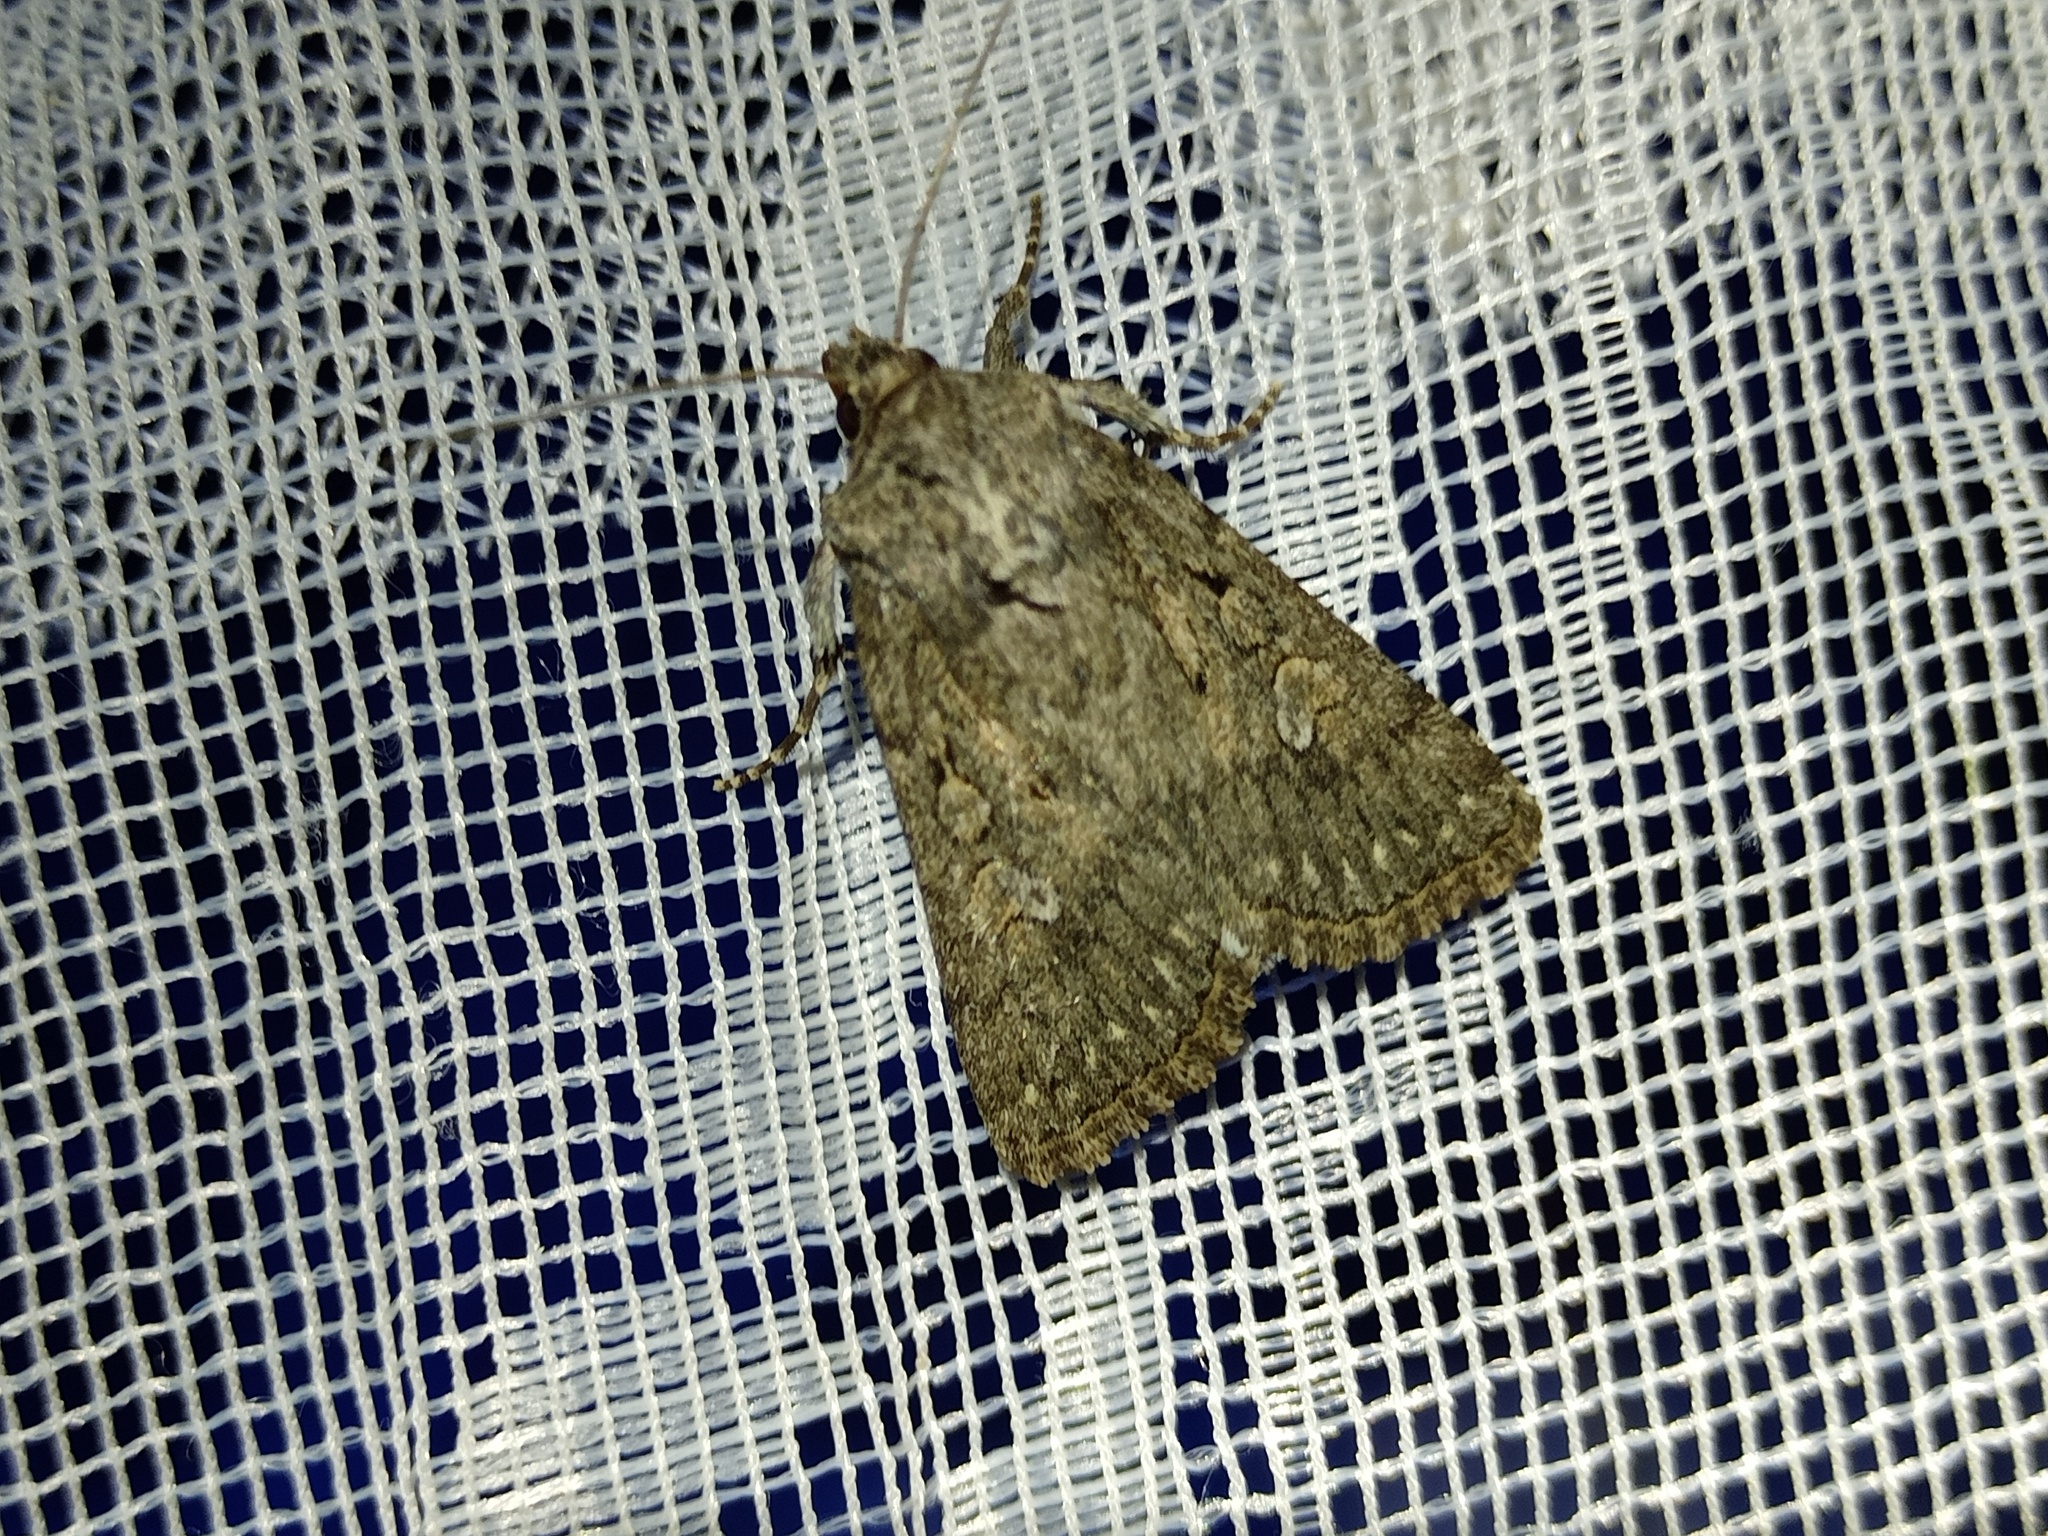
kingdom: Animalia
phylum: Arthropoda
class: Insecta
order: Lepidoptera
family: Noctuidae
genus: Yigoga
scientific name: Yigoga forcipula
